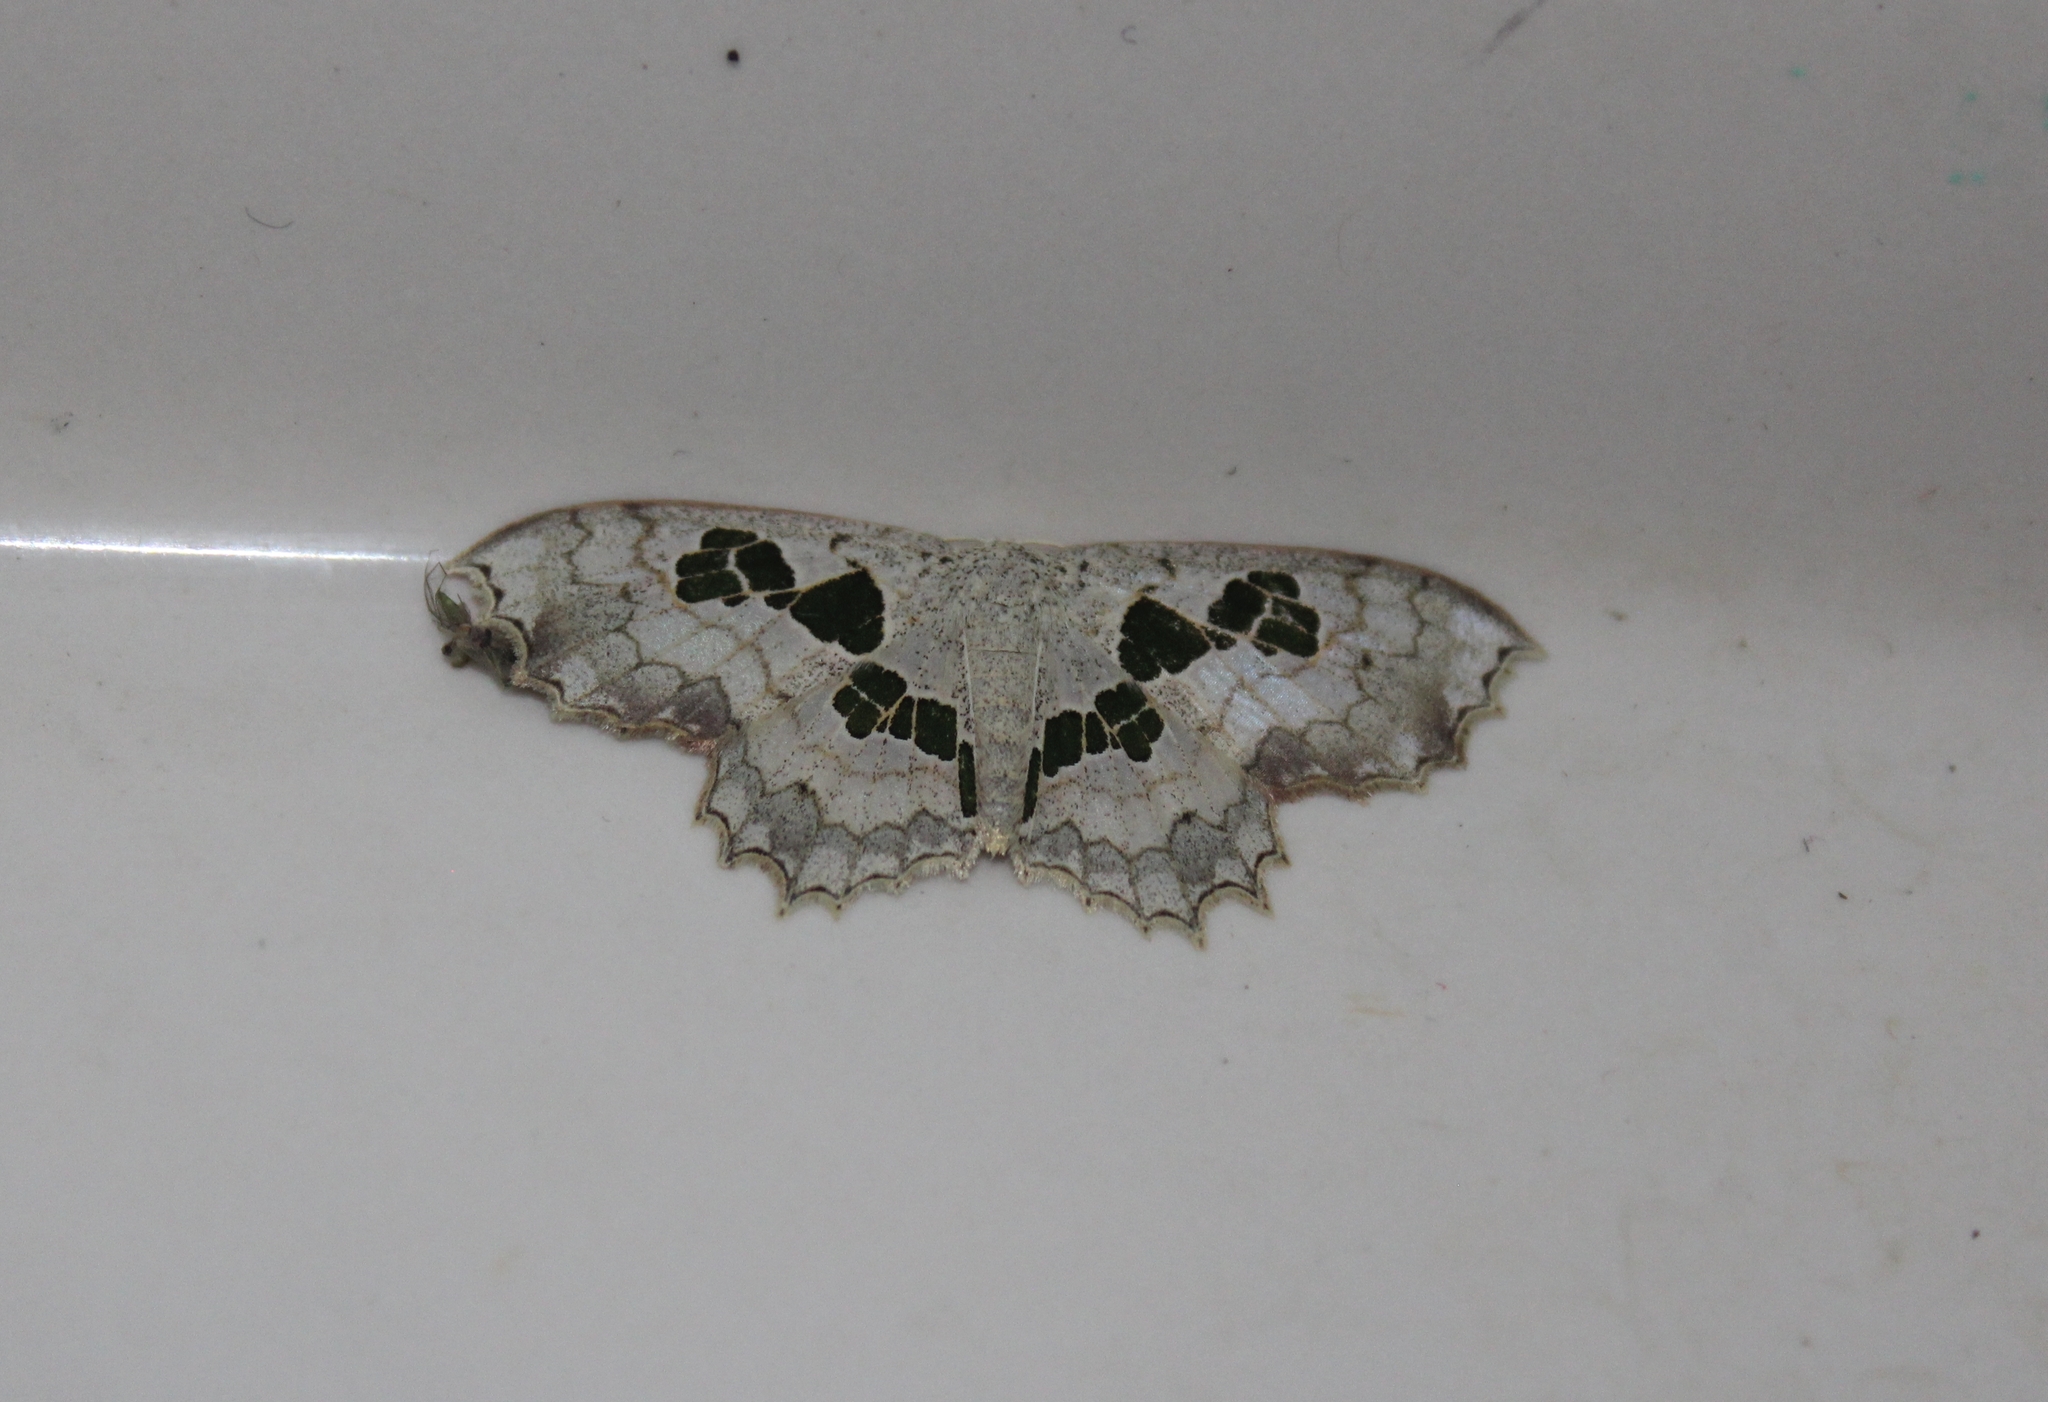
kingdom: Animalia
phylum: Arthropoda
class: Insecta
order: Lepidoptera
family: Geometridae
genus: Trygodes
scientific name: Trygodes musivaria
